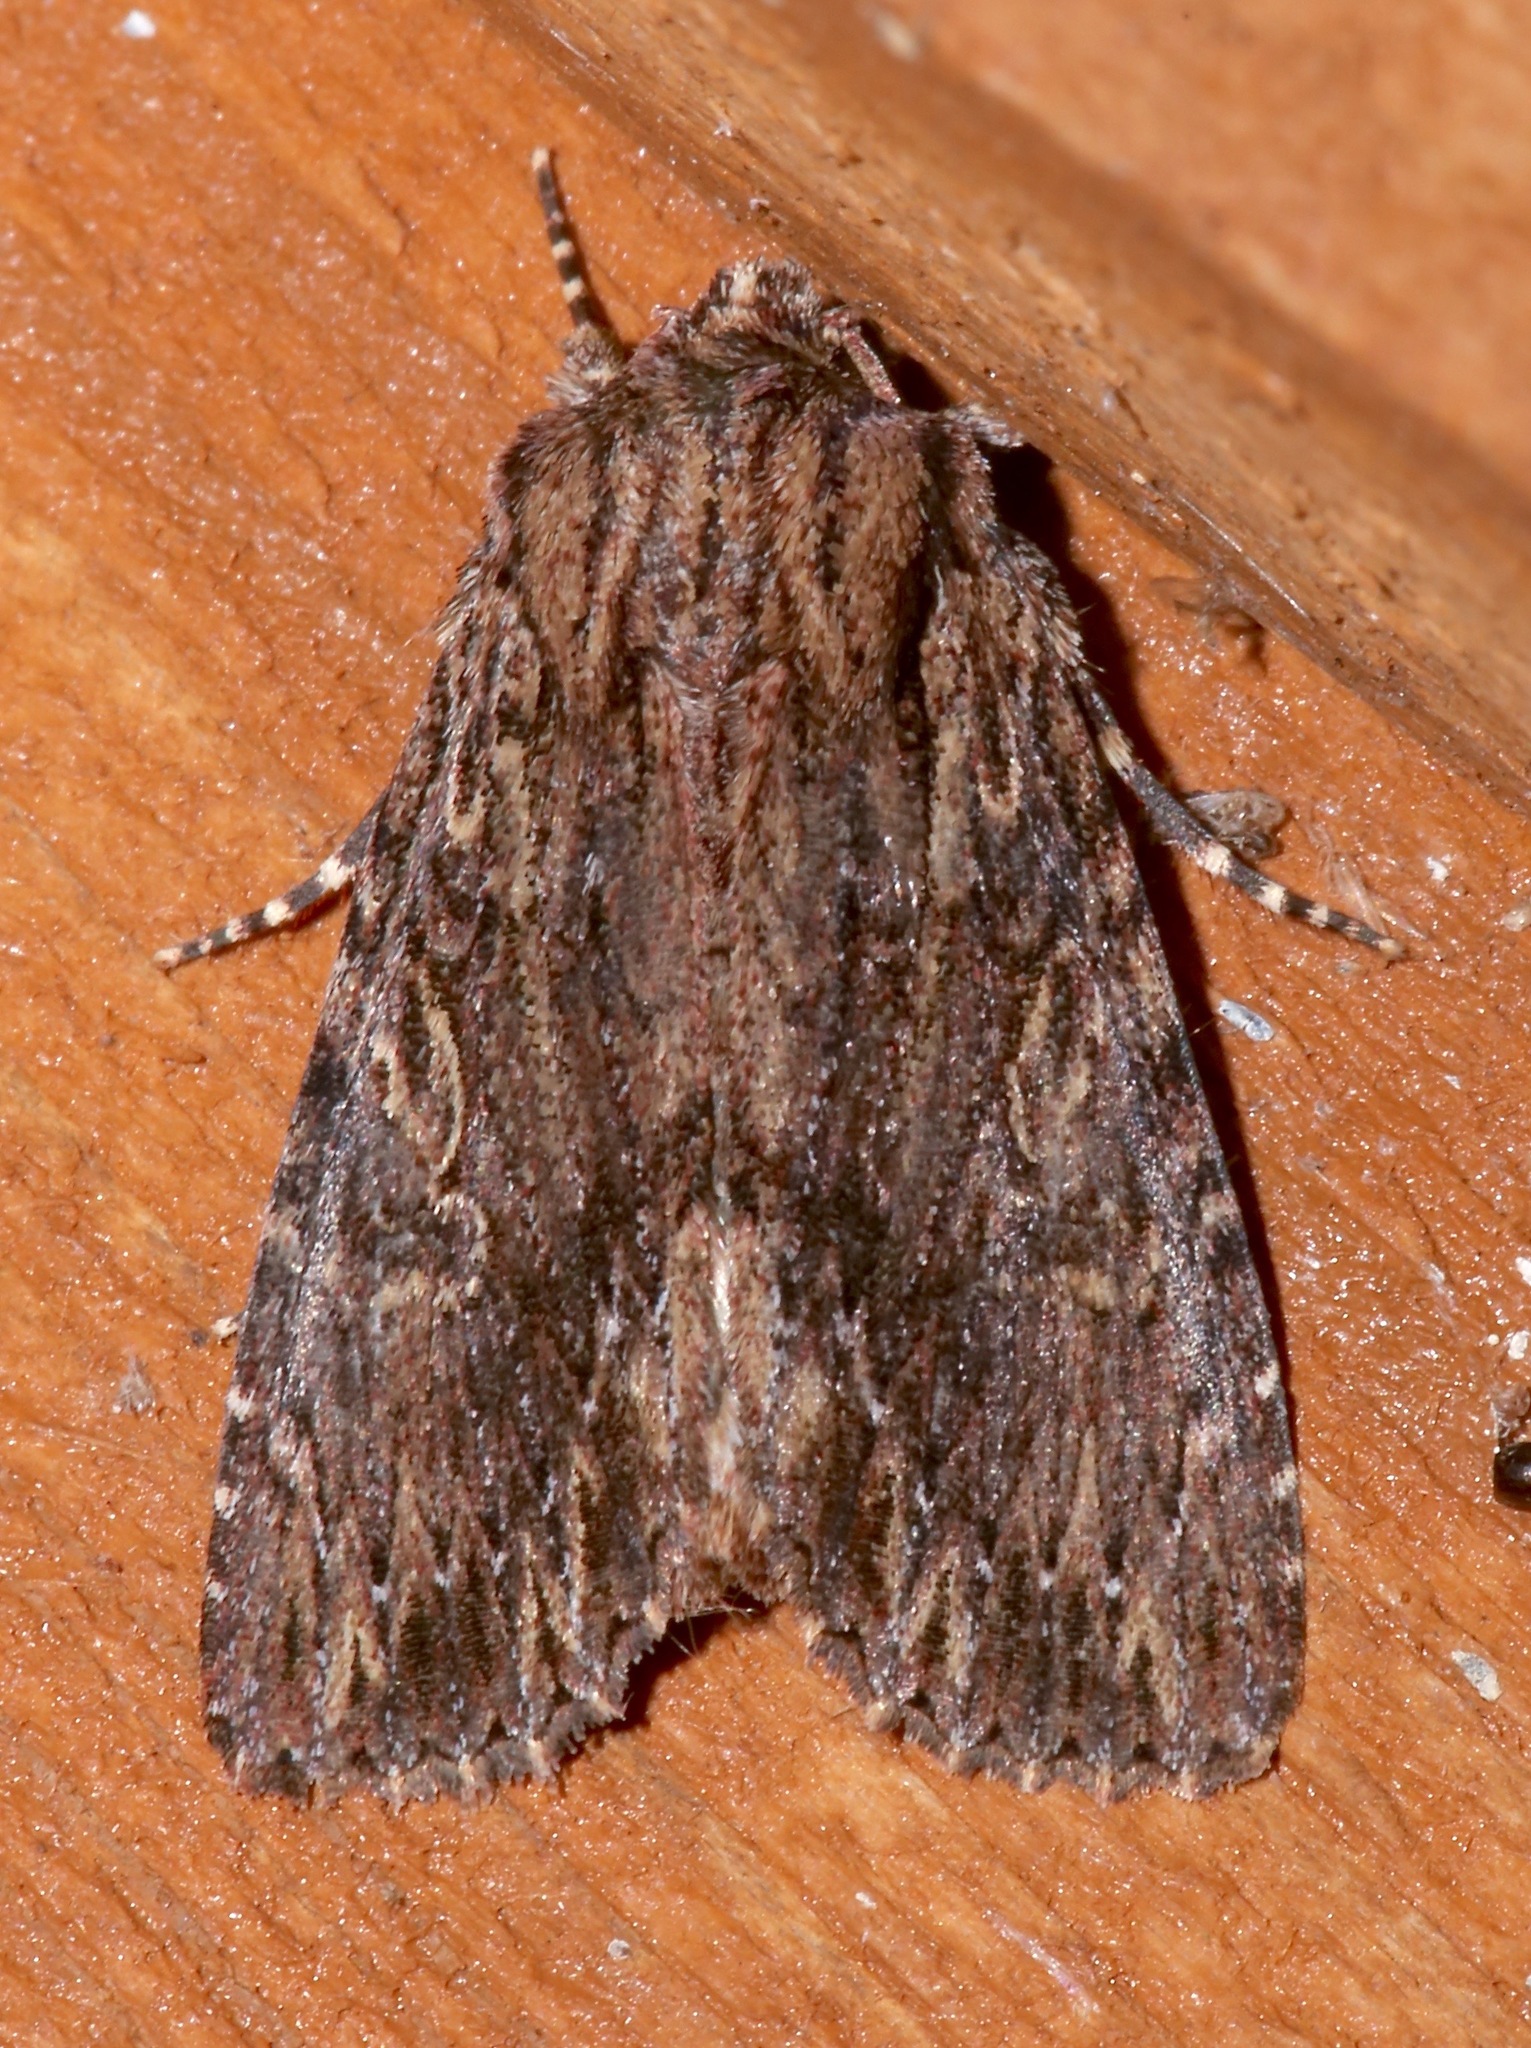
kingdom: Animalia
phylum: Arthropoda
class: Insecta
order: Lepidoptera
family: Noctuidae
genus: Achatia
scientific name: Achatia confusa
